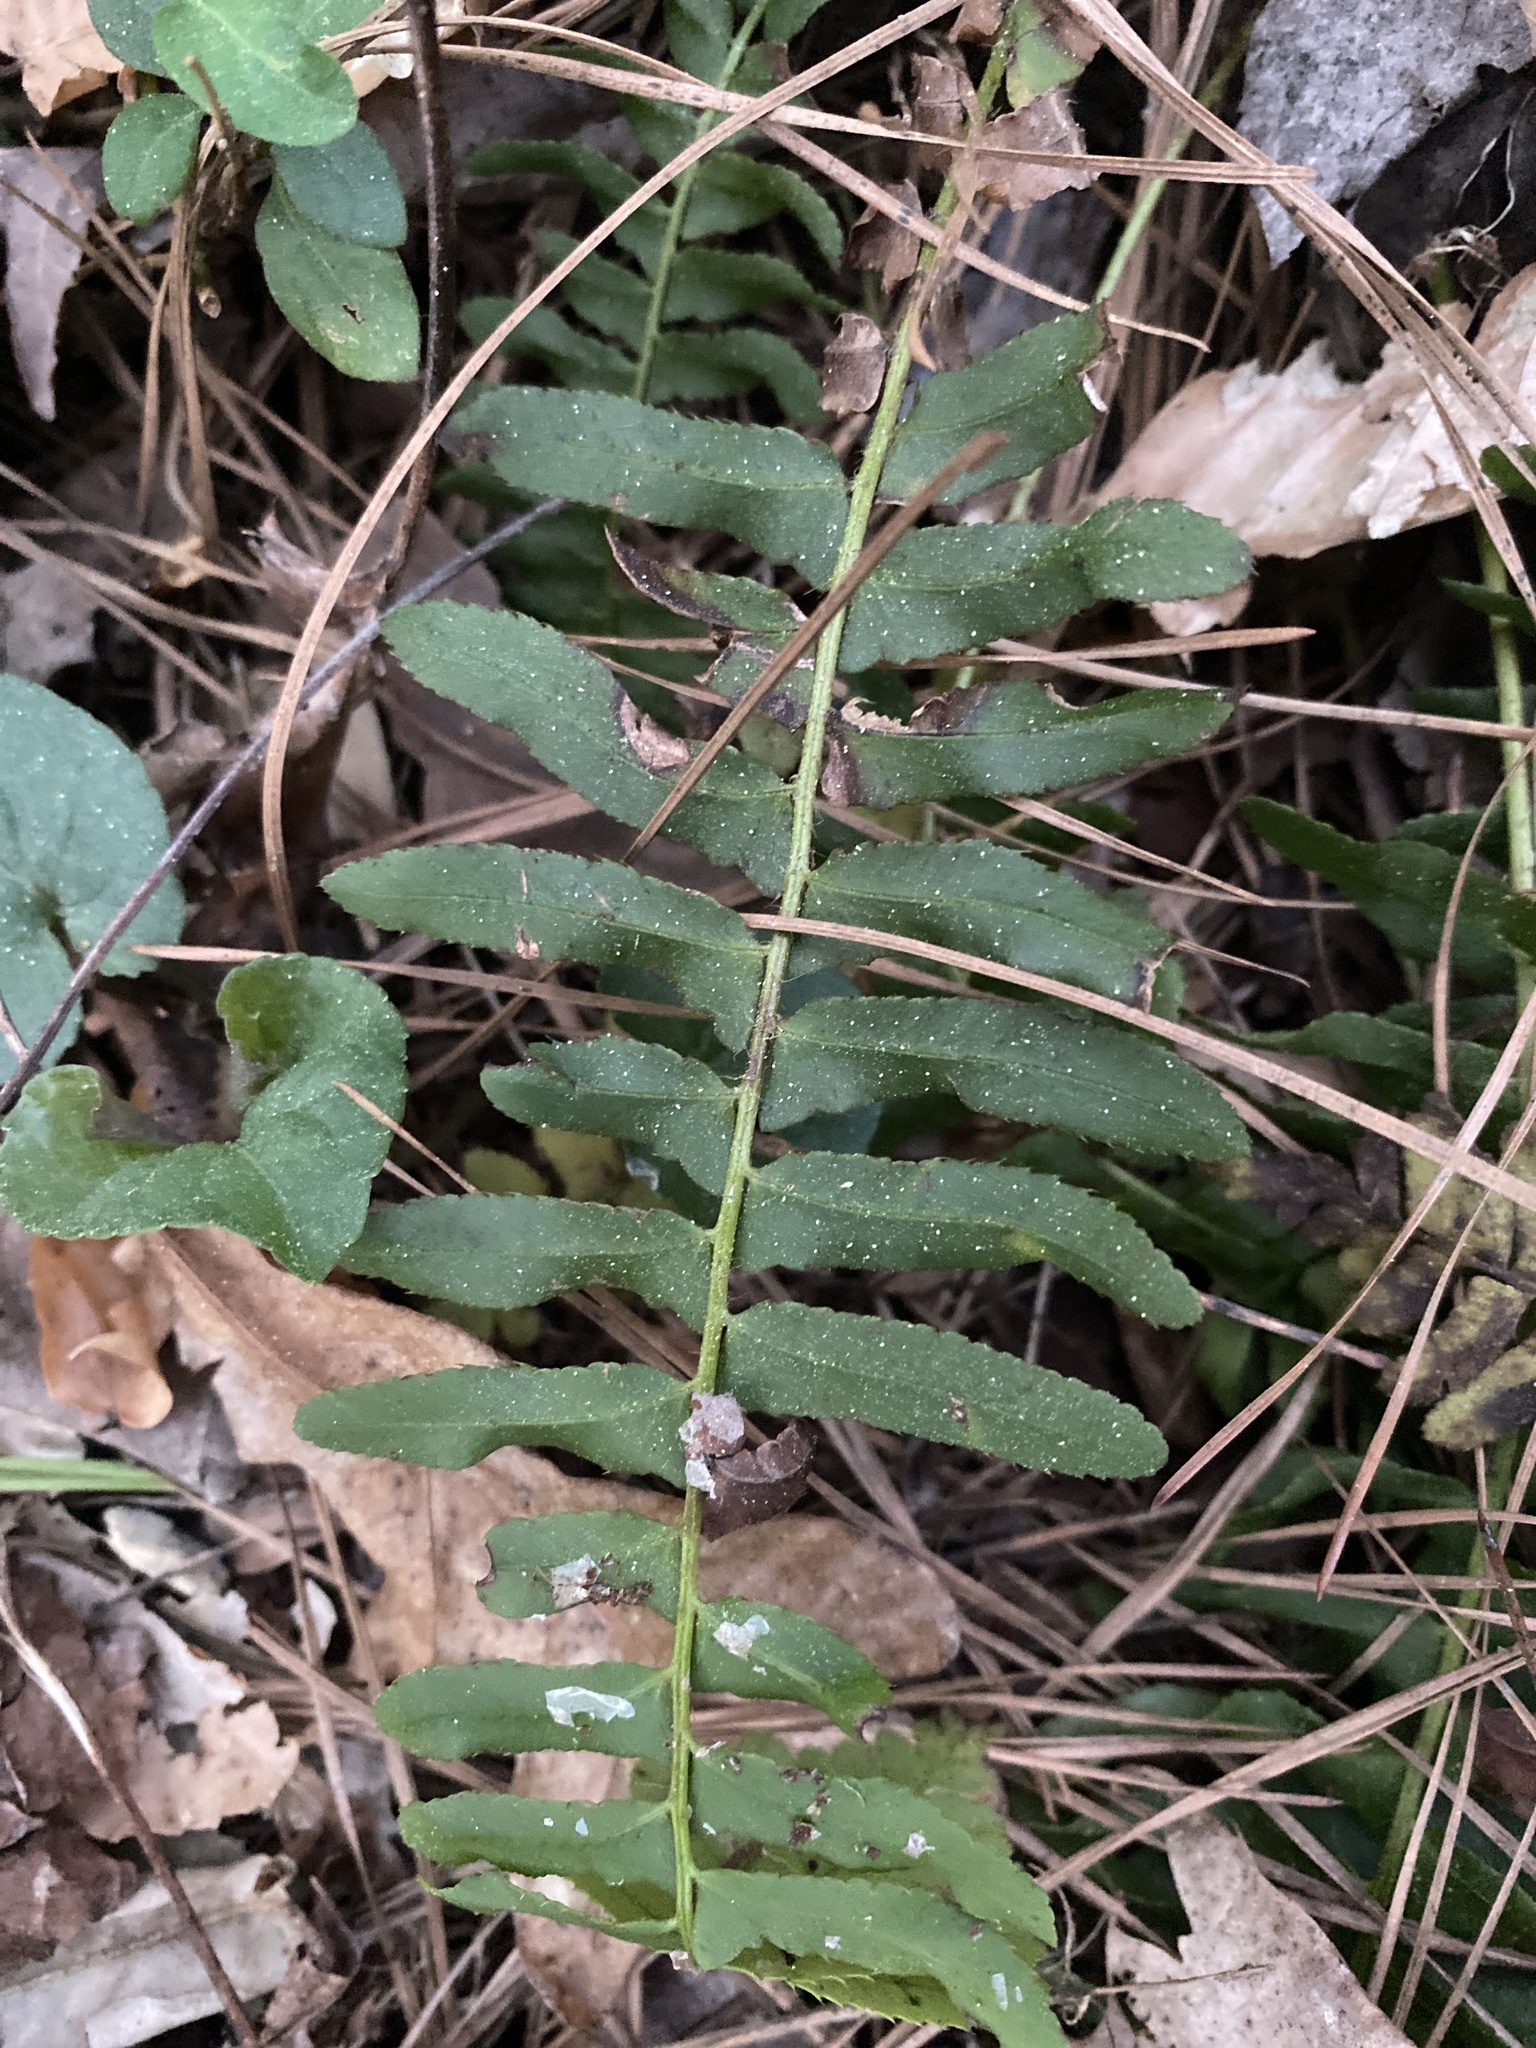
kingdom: Plantae
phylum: Tracheophyta
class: Polypodiopsida
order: Polypodiales
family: Dryopteridaceae
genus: Polystichum
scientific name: Polystichum acrostichoides
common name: Christmas fern
